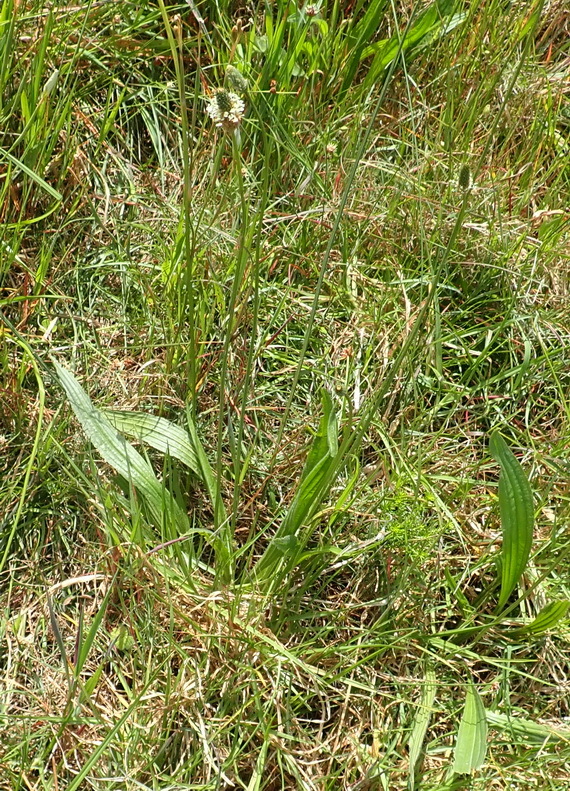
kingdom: Plantae
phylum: Tracheophyta
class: Magnoliopsida
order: Lamiales
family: Plantaginaceae
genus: Plantago
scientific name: Plantago lanceolata
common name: Ribwort plantain
